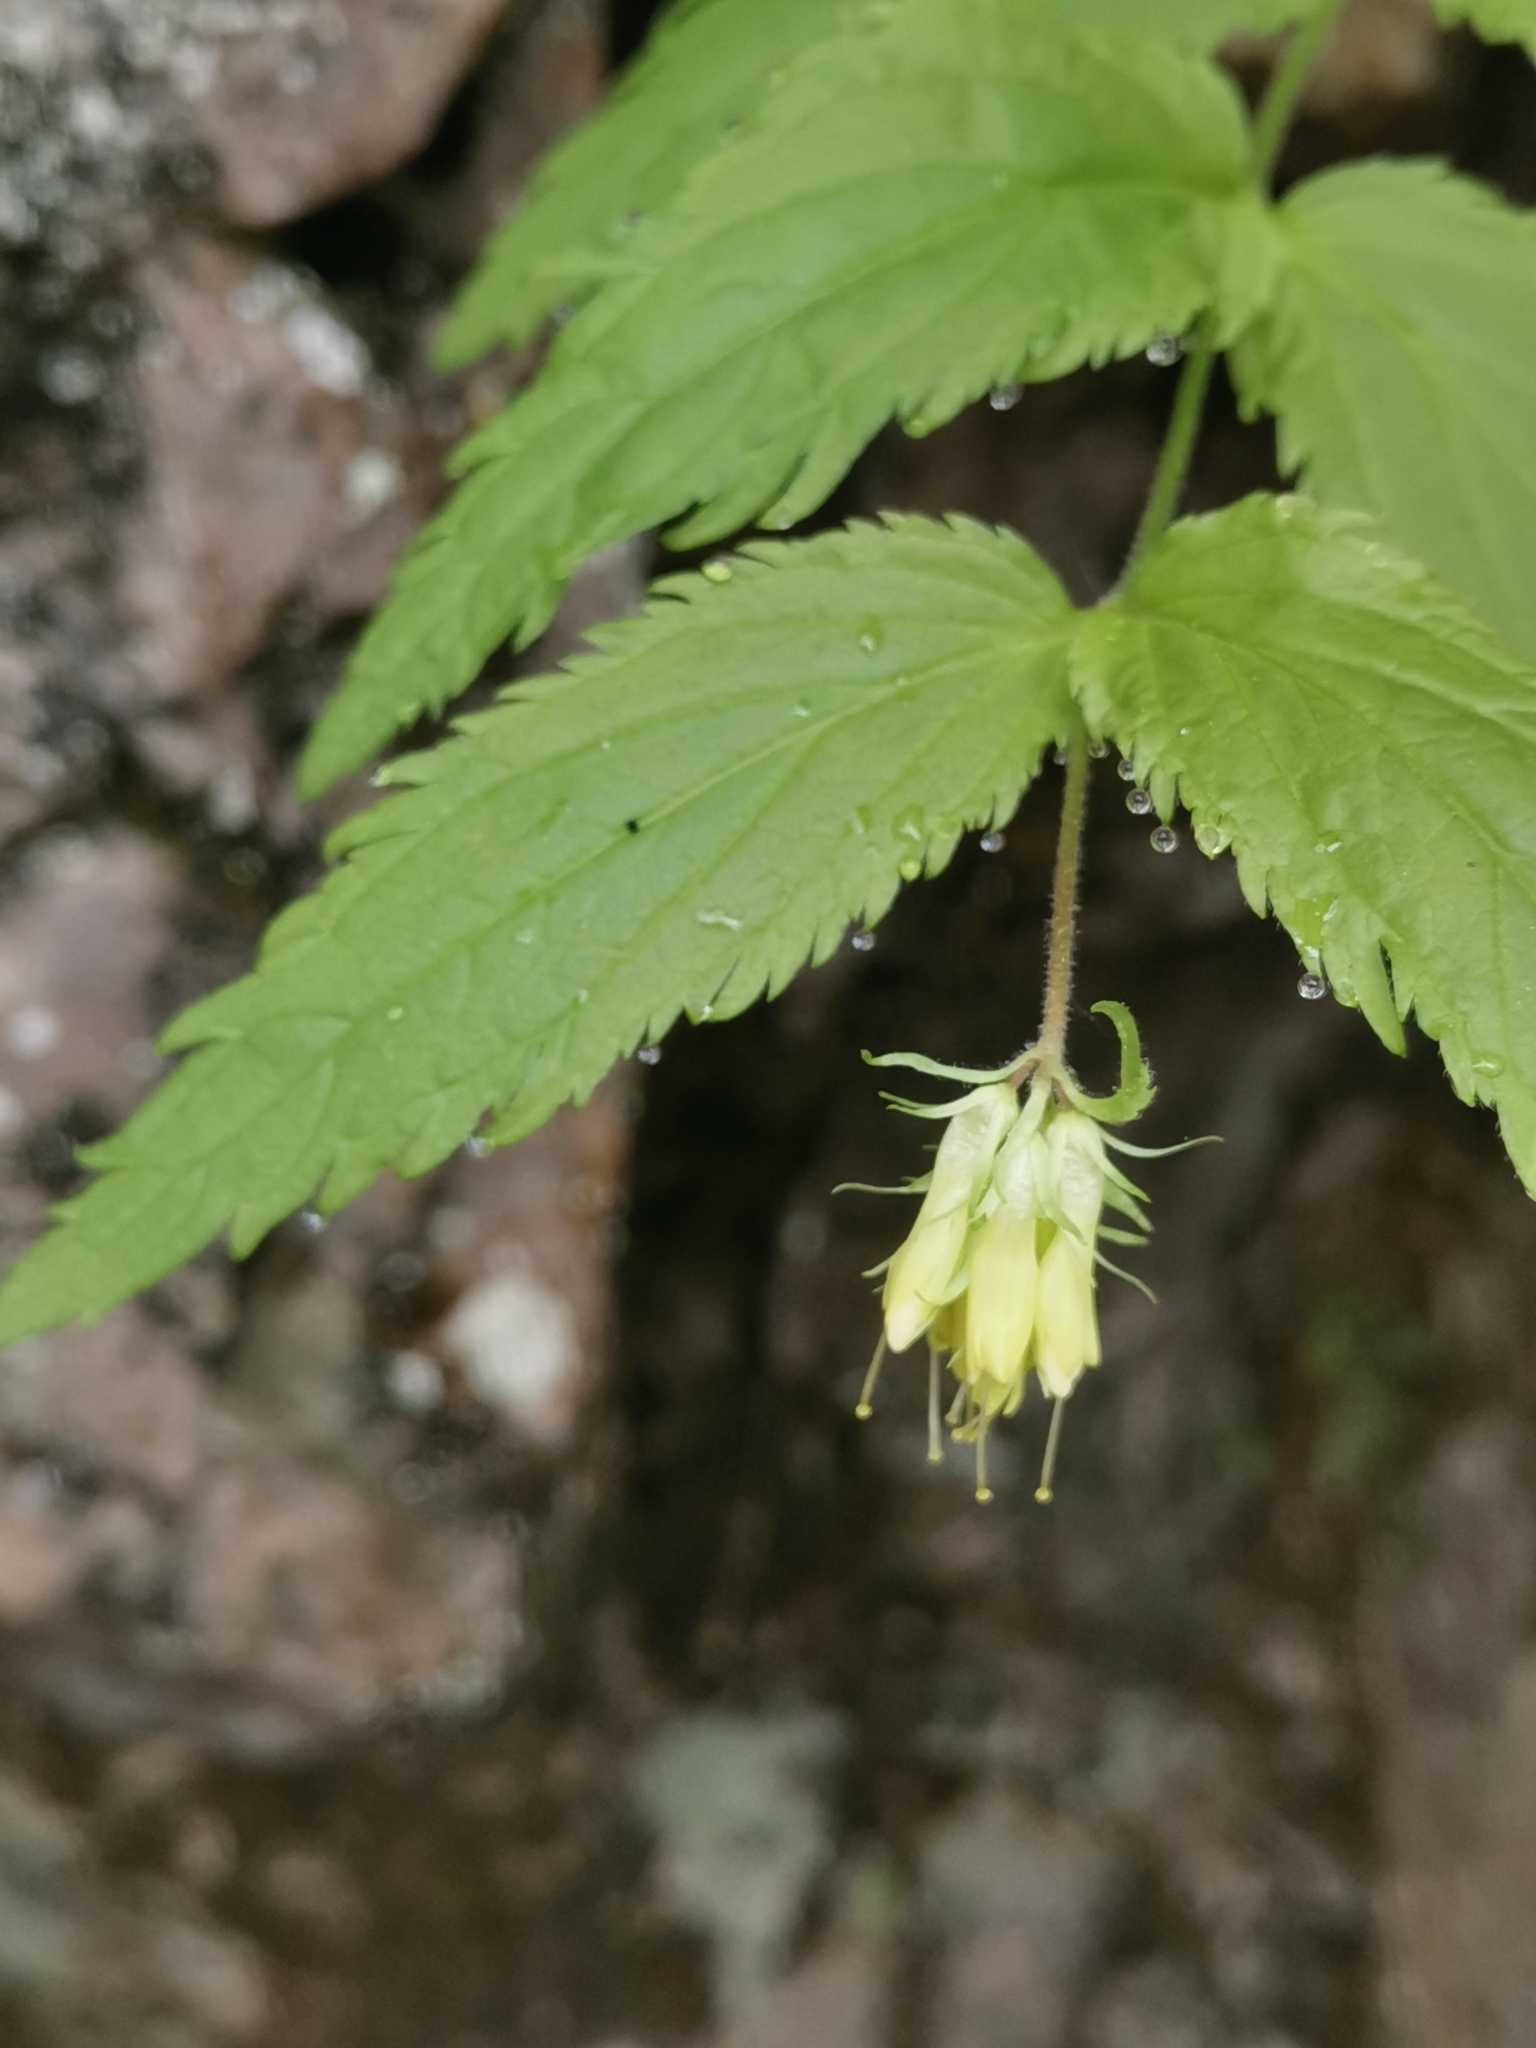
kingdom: Plantae
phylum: Tracheophyta
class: Magnoliopsida
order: Lamiales
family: Plantaginaceae
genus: Paederota
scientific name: Paederota lutea
